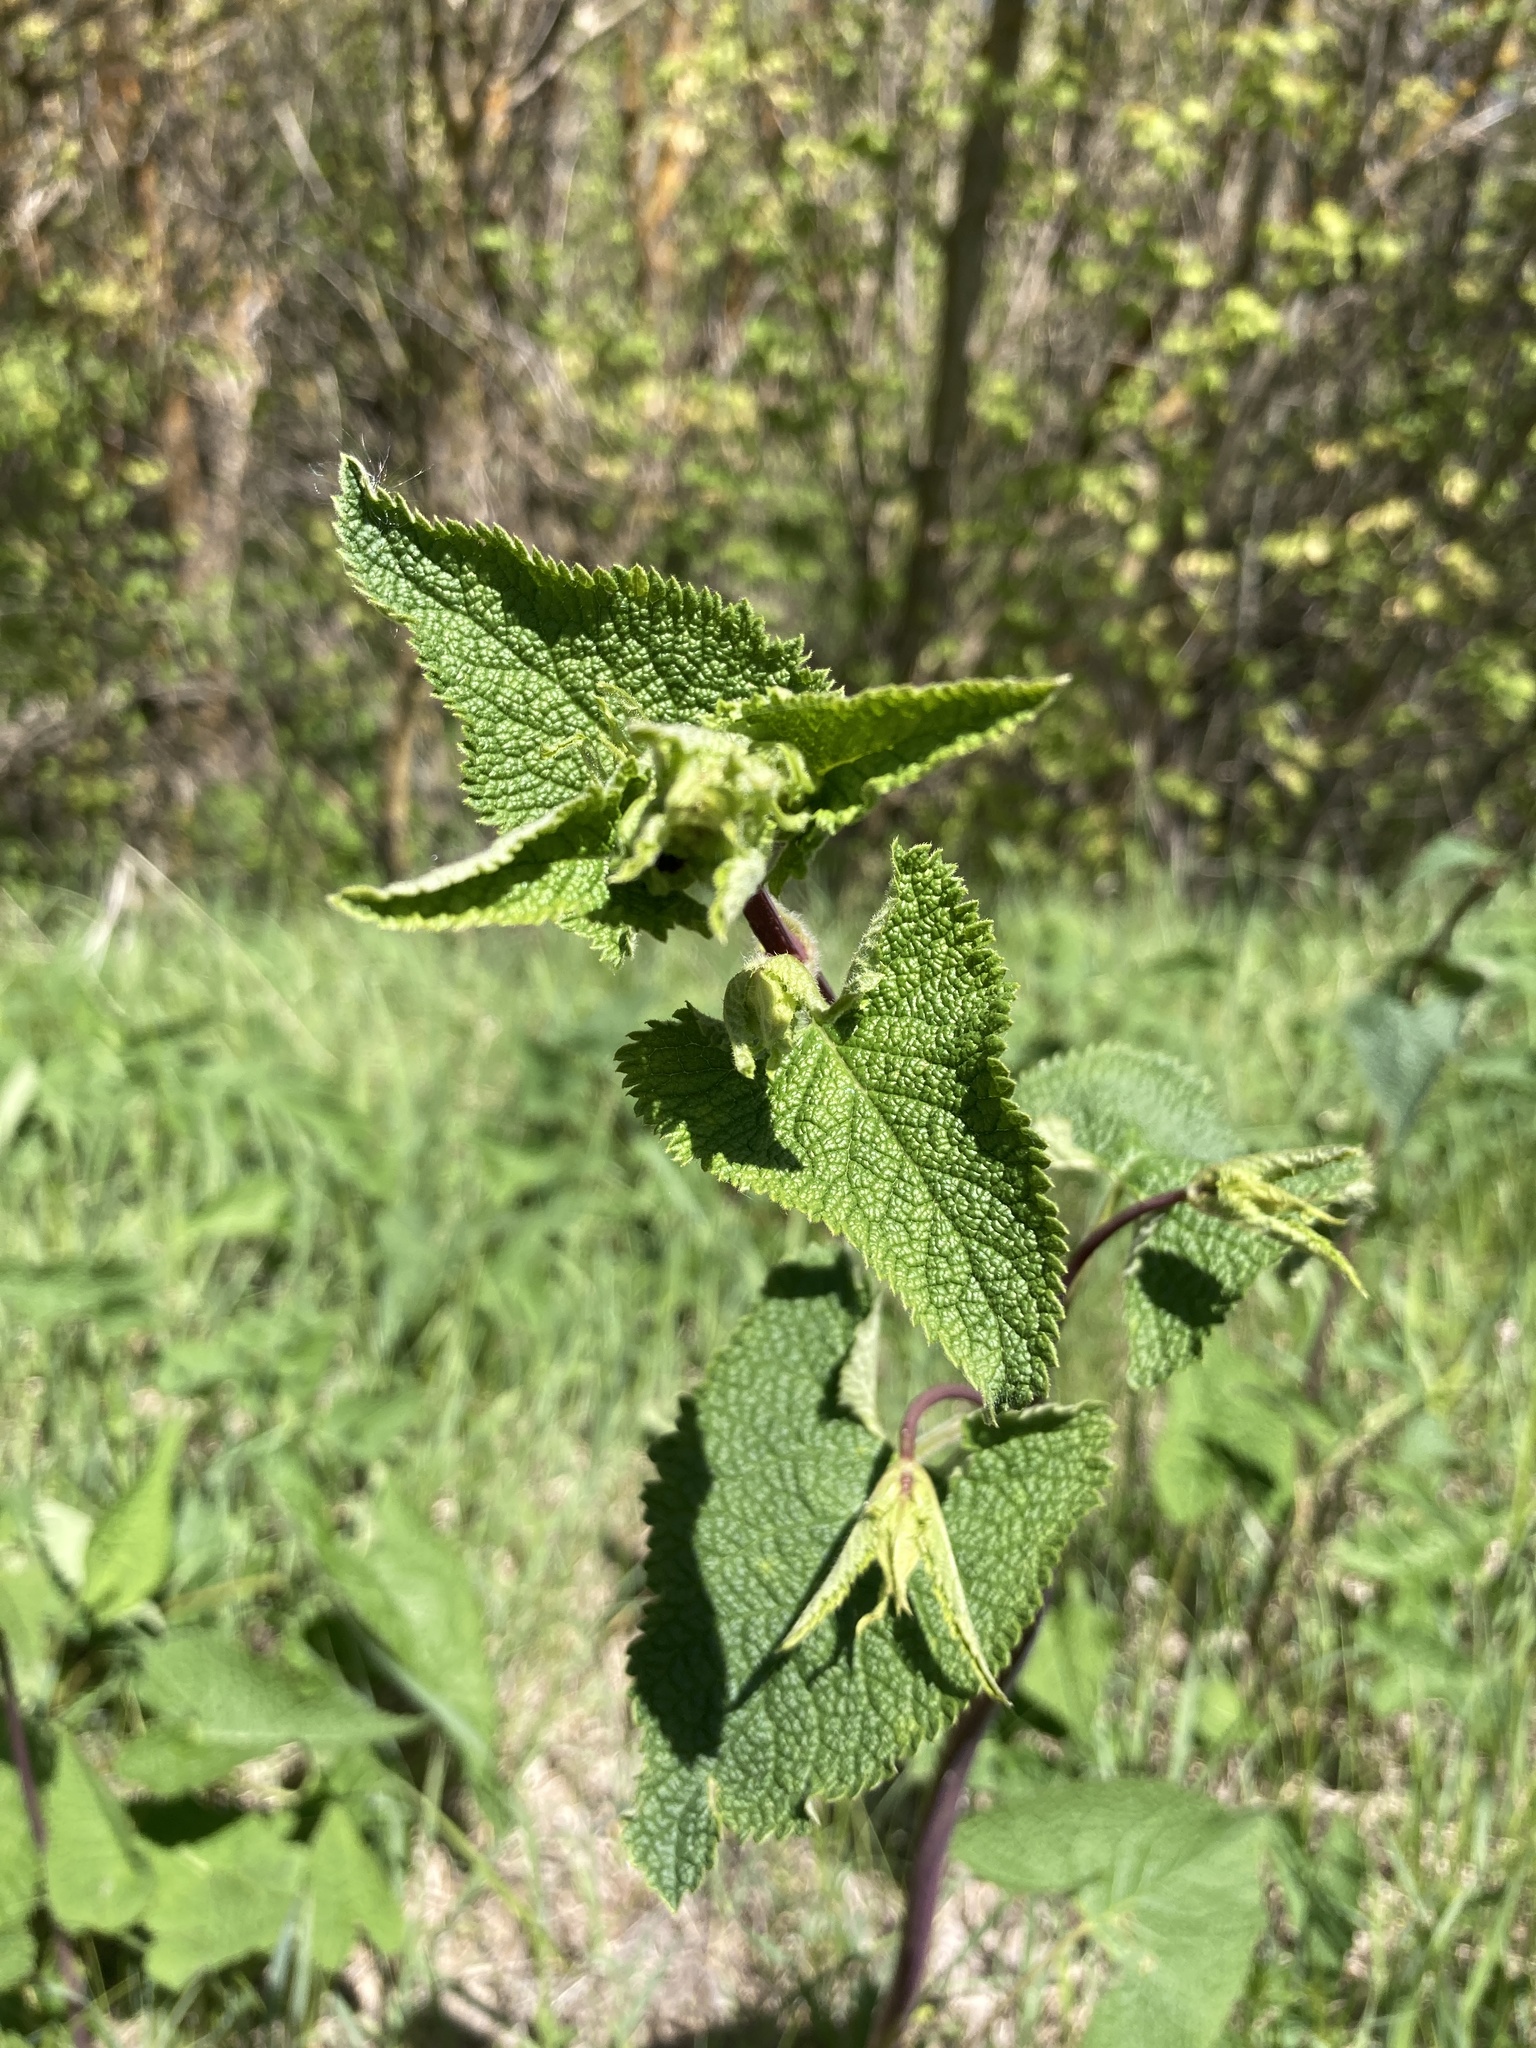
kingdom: Plantae
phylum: Tracheophyta
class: Magnoliopsida
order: Lamiales
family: Lamiaceae
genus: Phlomoides
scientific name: Phlomoides tuberosa
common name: Tuberous jerusalem sage
